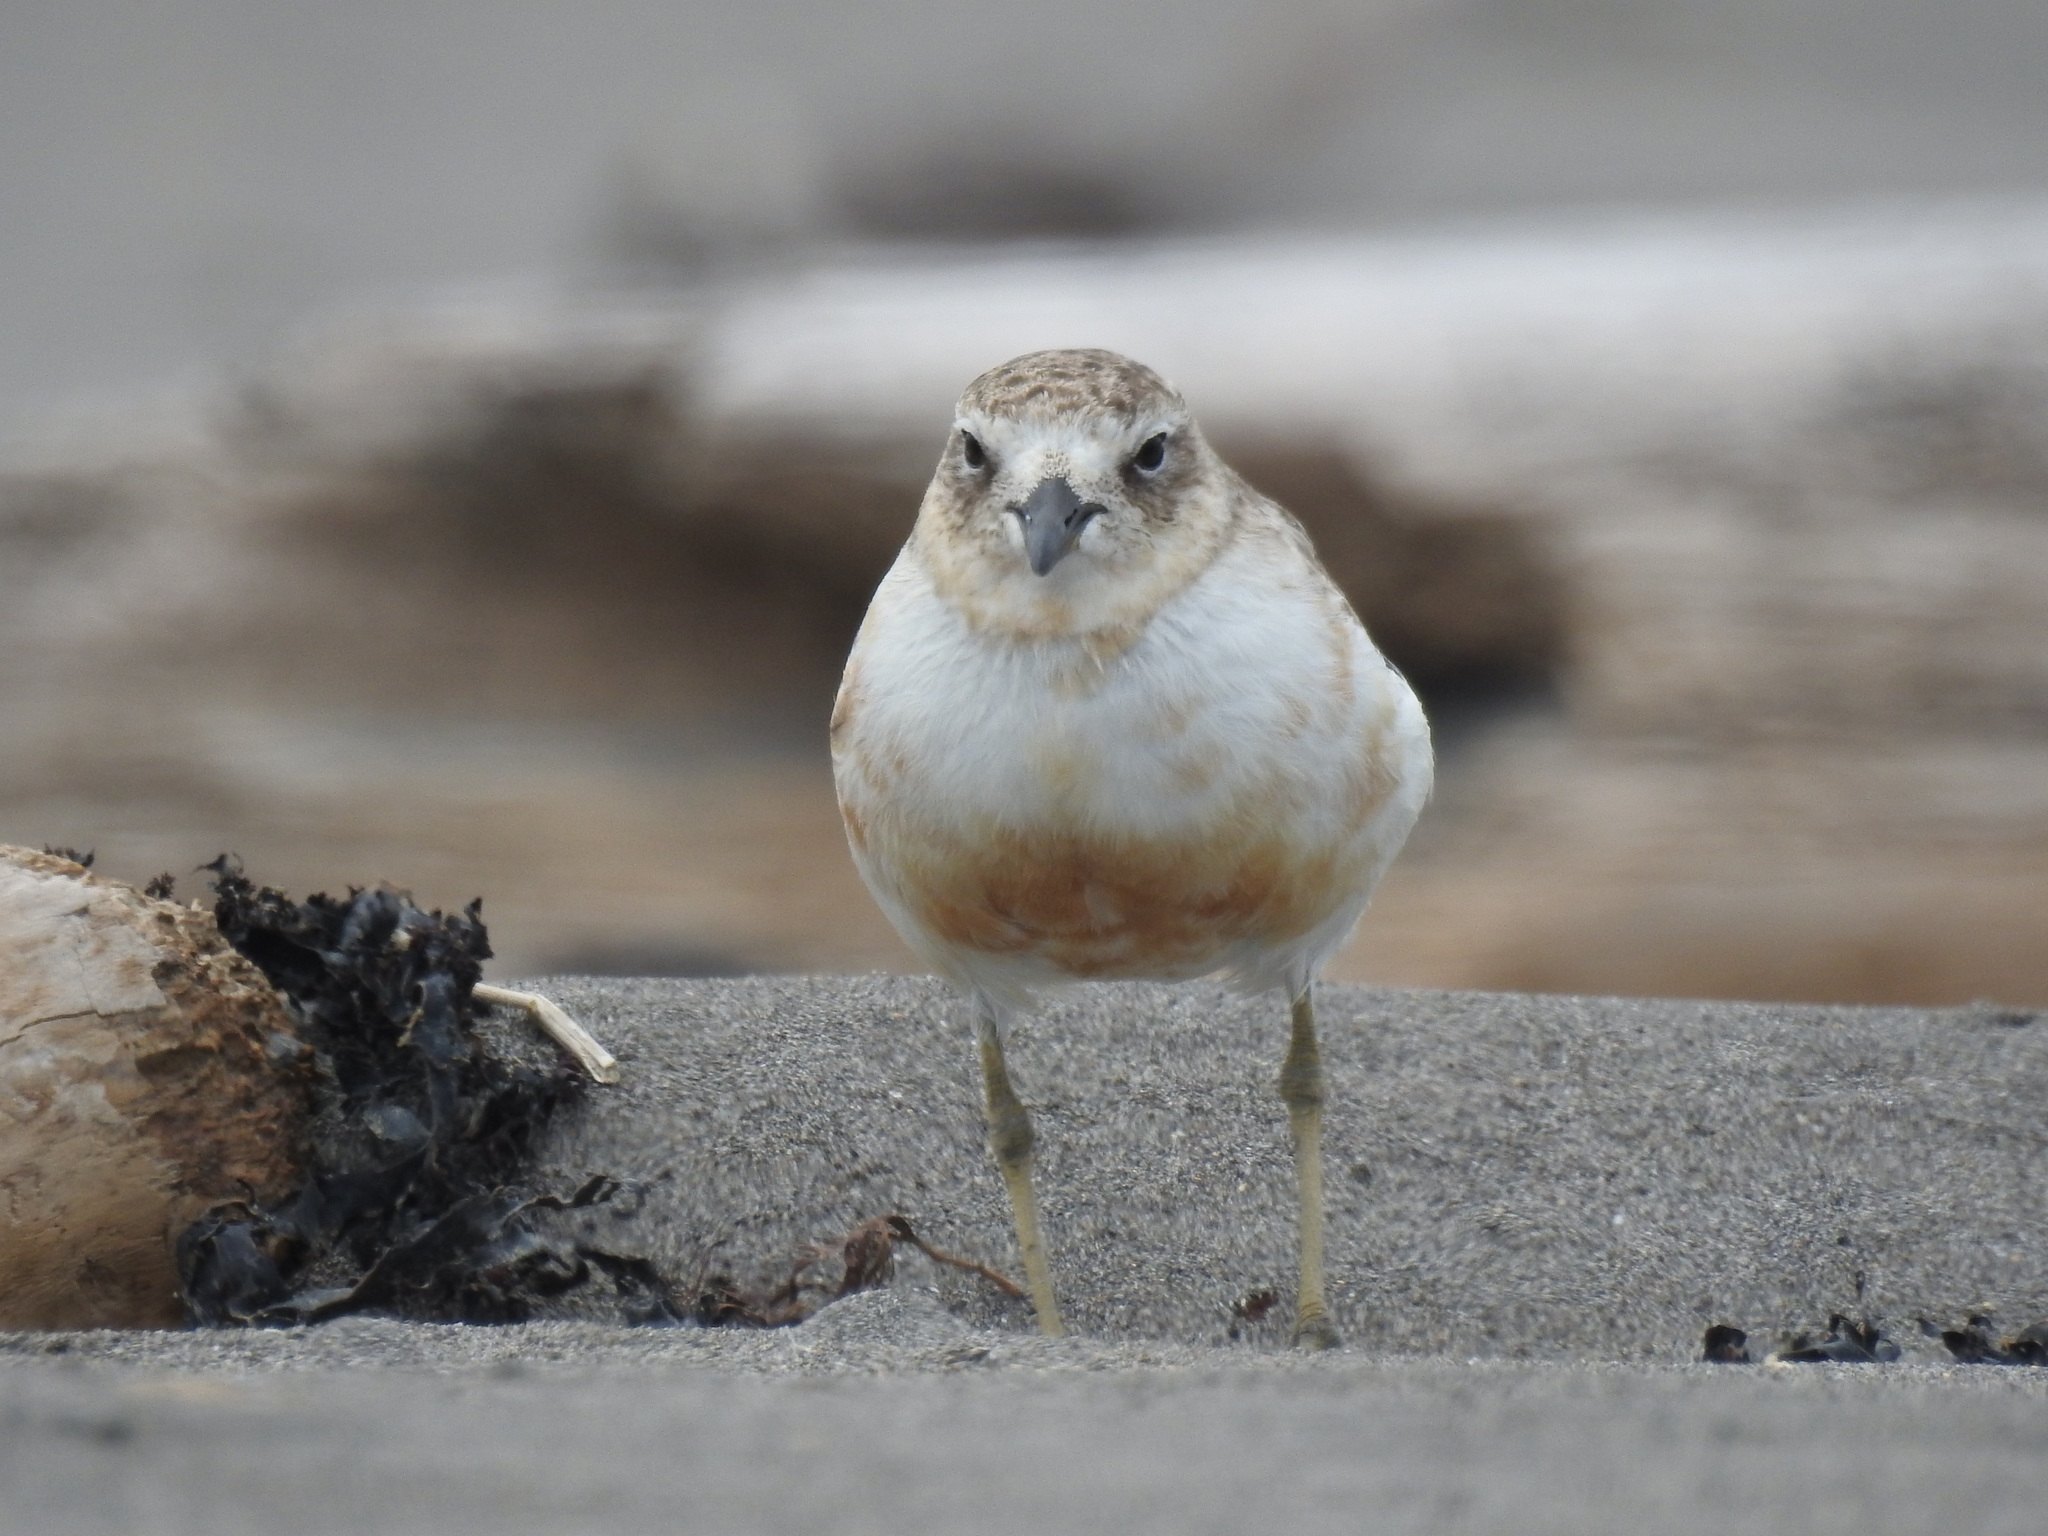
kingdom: Animalia
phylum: Chordata
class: Aves
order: Charadriiformes
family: Charadriidae
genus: Anarhynchus
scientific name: Anarhynchus
